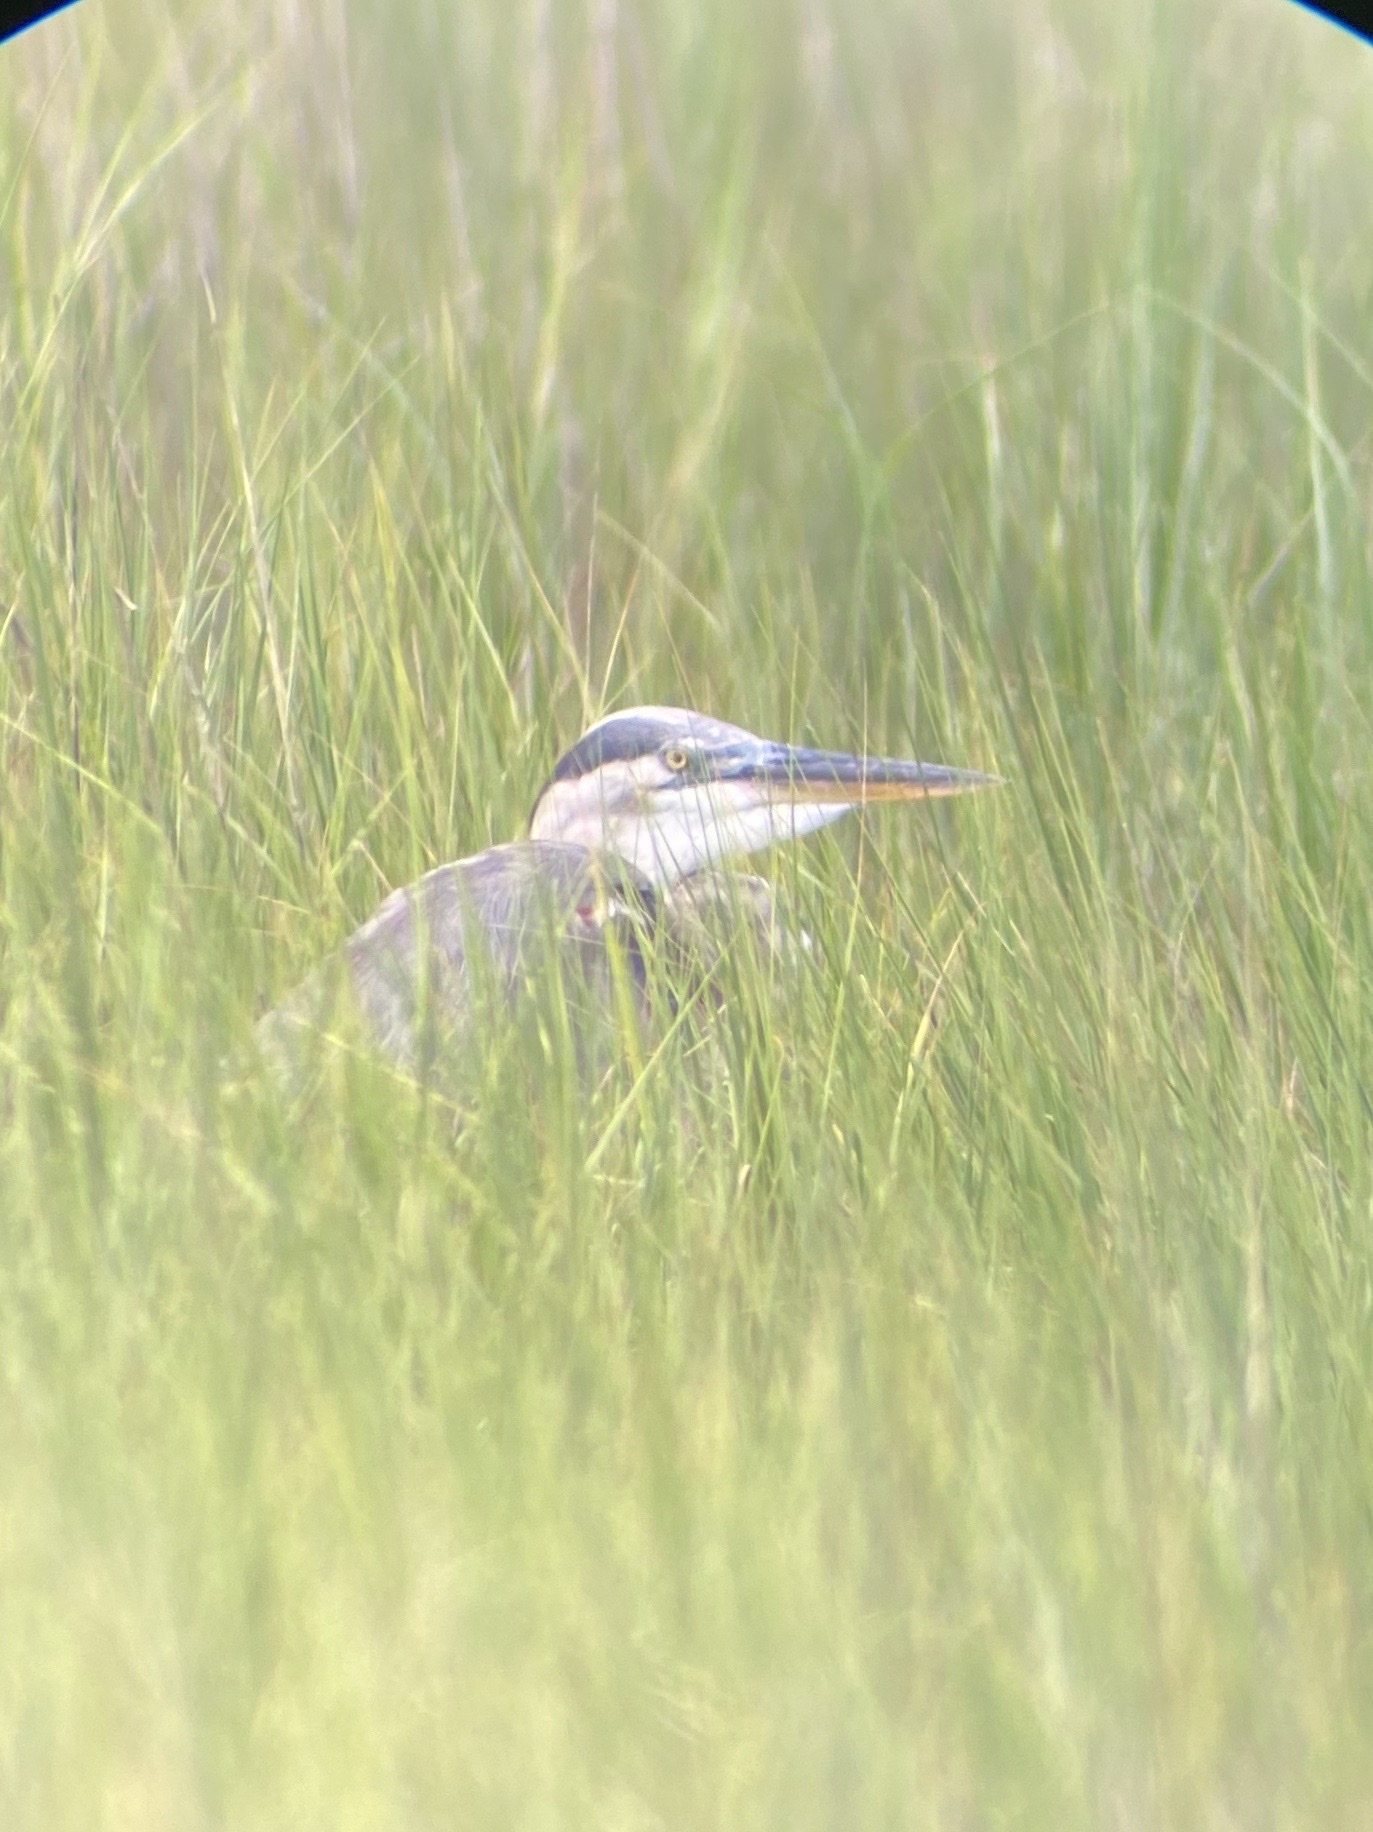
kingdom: Animalia
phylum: Chordata
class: Aves
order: Pelecaniformes
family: Ardeidae
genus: Ardea
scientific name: Ardea herodias
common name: Great blue heron
